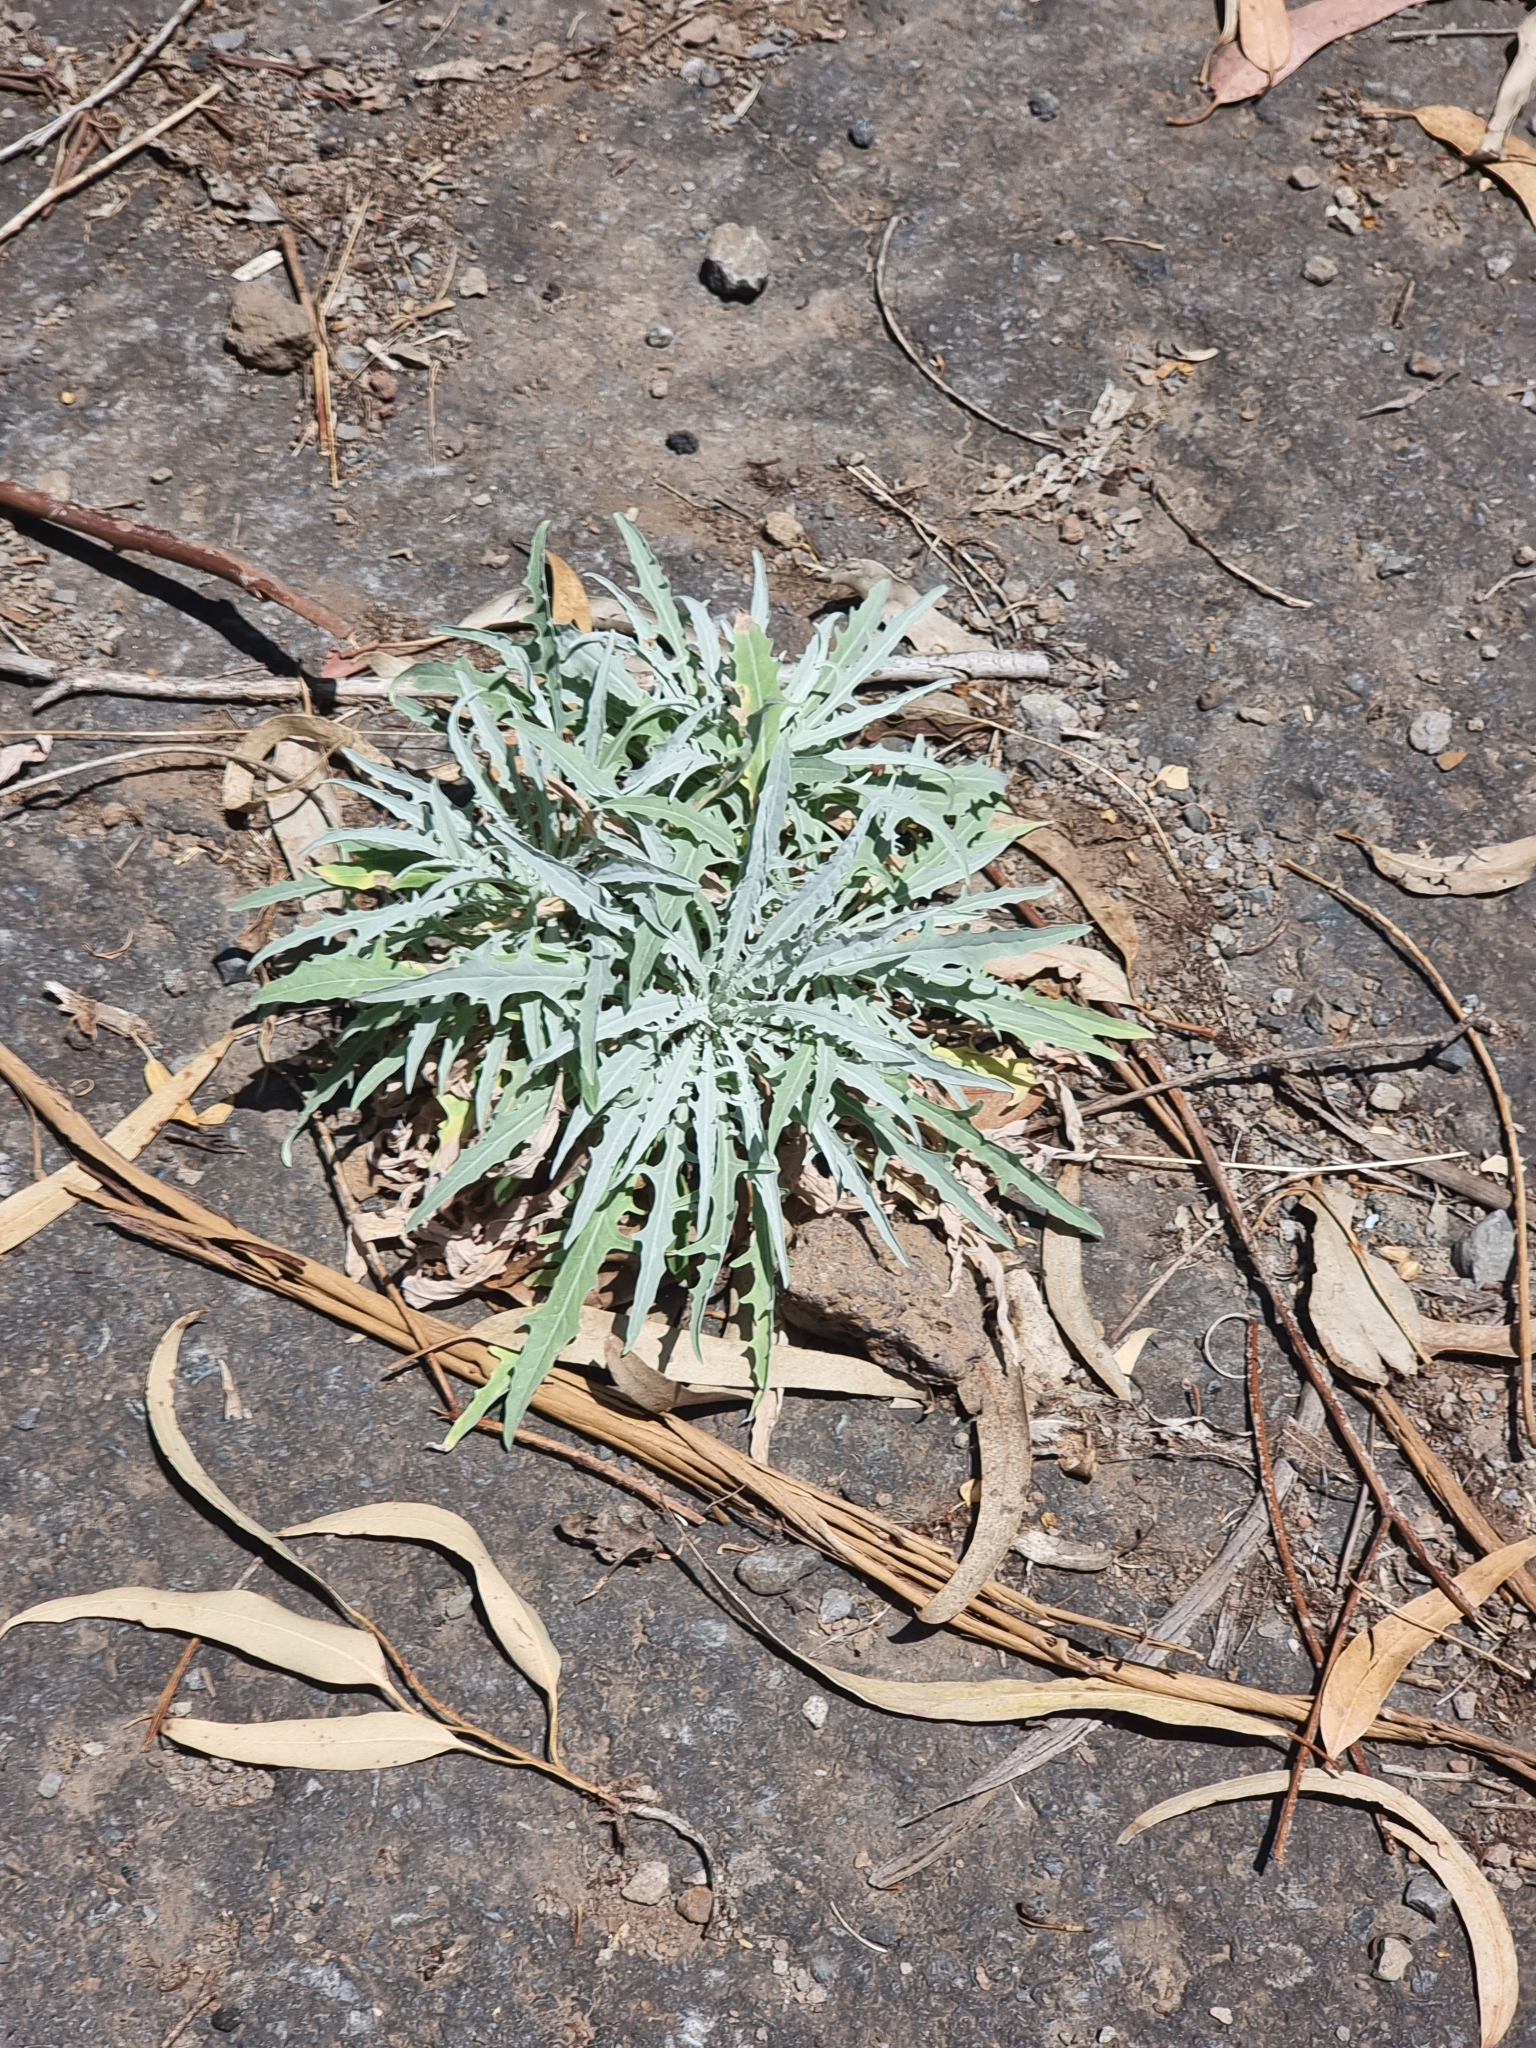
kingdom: Plantae
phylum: Tracheophyta
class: Magnoliopsida
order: Asterales
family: Asteraceae
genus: Andryala
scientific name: Andryala glandulosa
